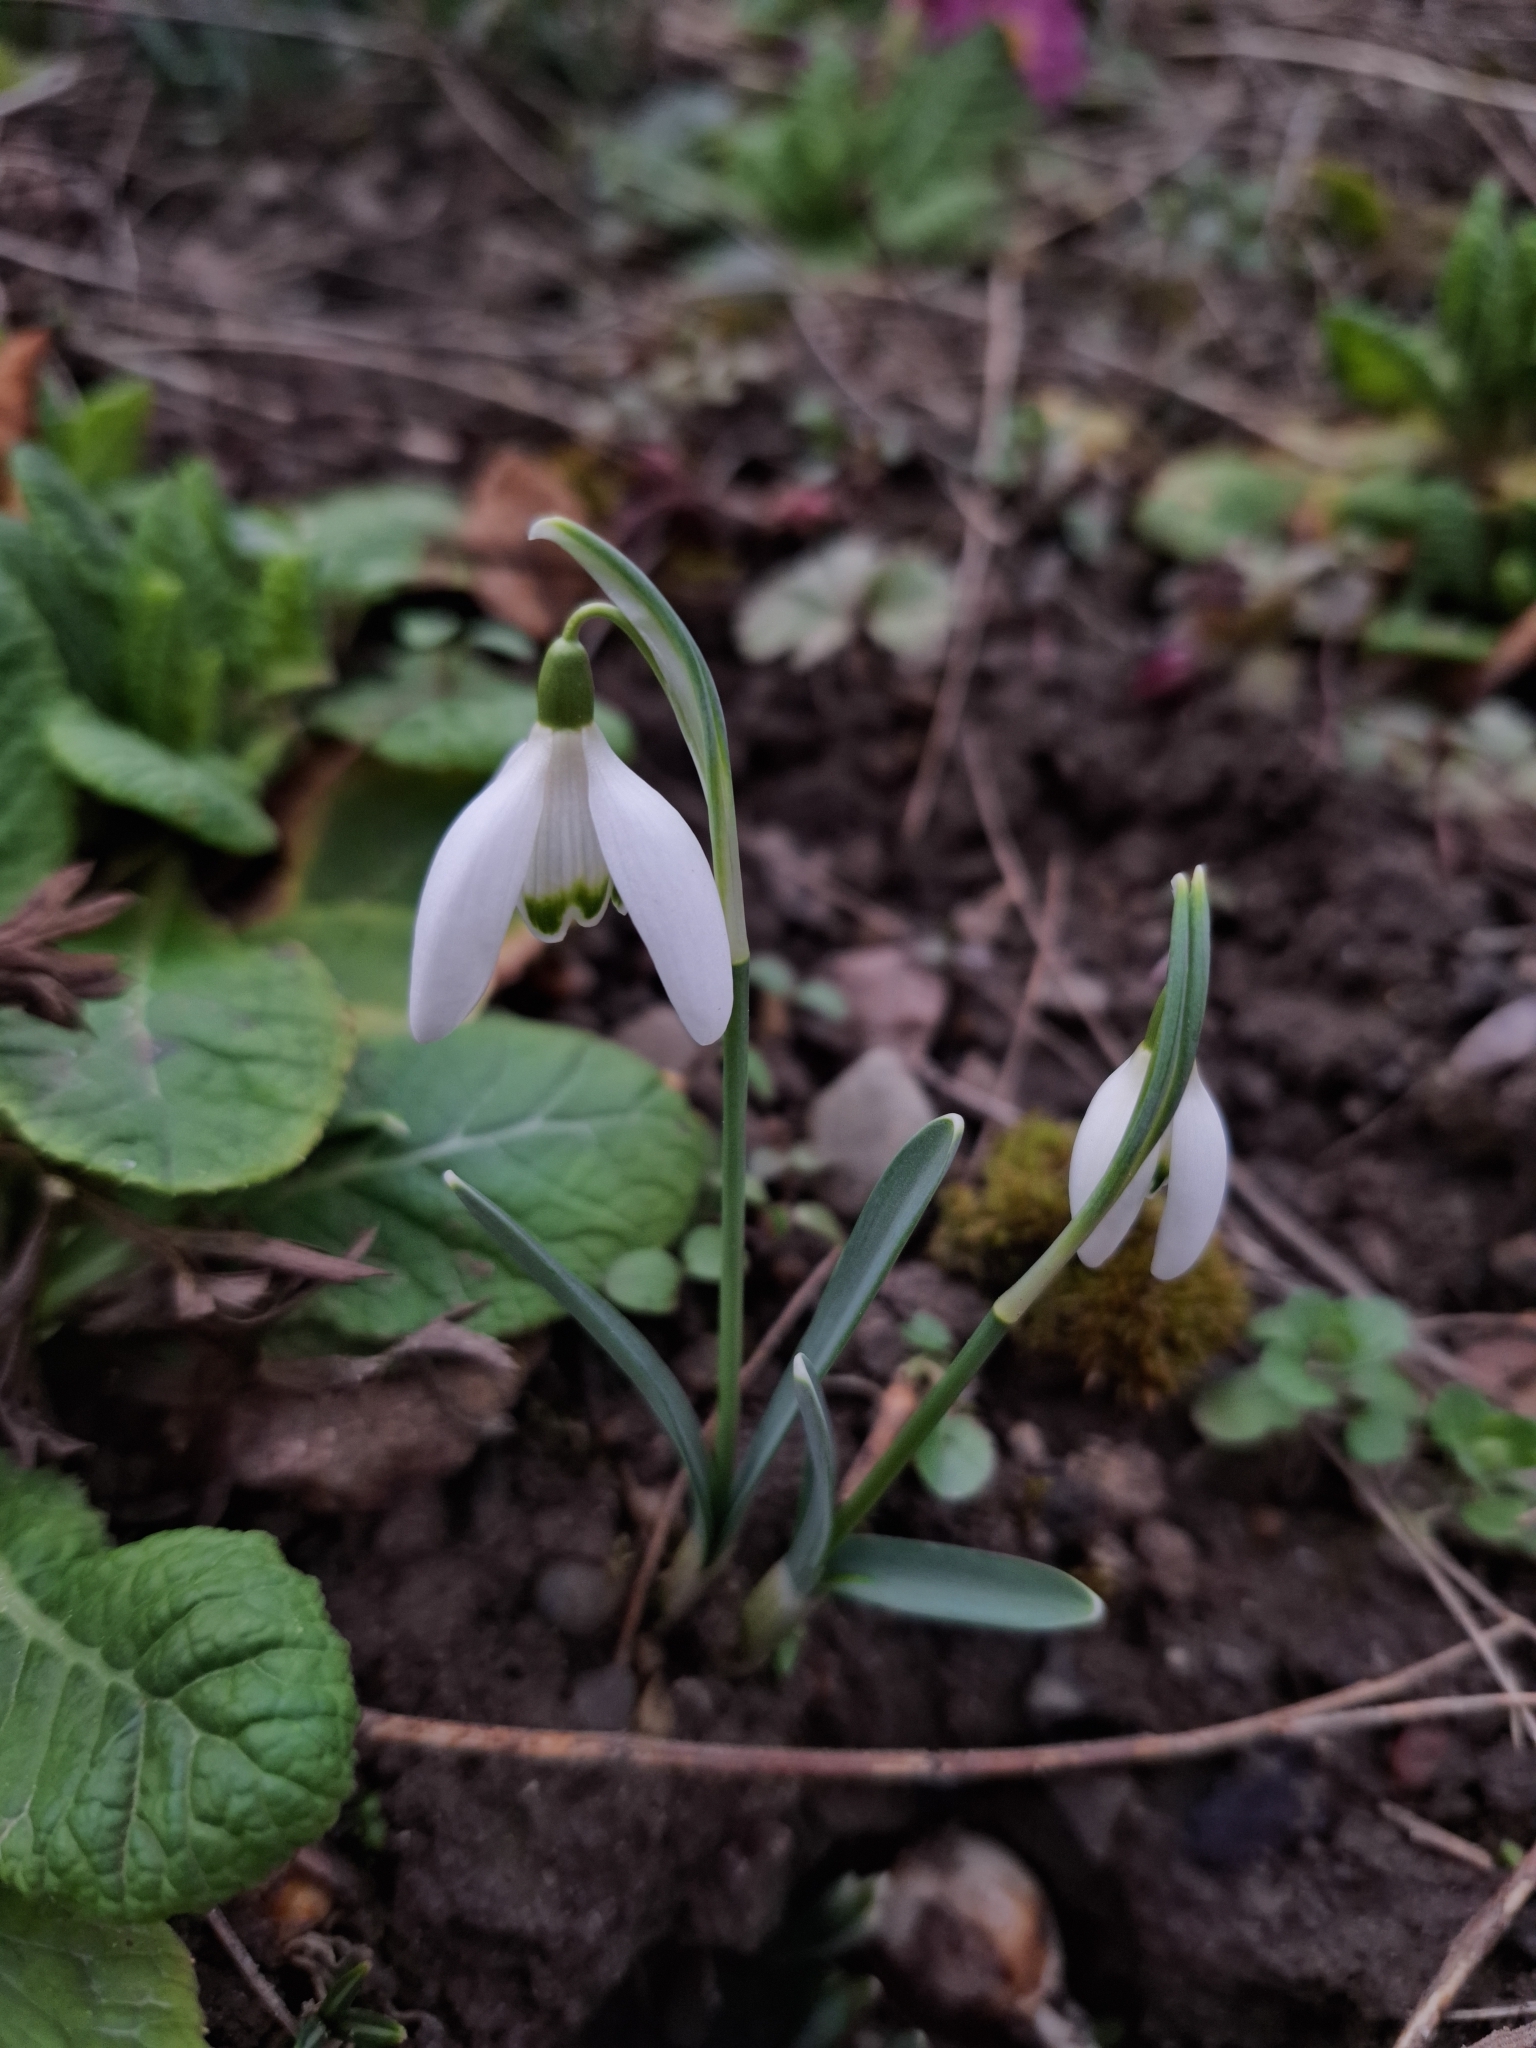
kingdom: Plantae
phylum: Tracheophyta
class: Liliopsida
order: Asparagales
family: Amaryllidaceae
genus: Galanthus
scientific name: Galanthus nivalis
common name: Snowdrop
